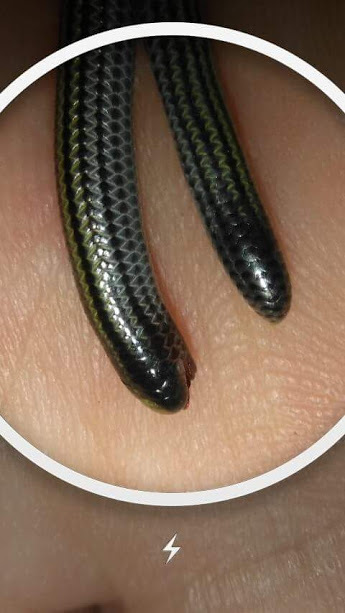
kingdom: Animalia
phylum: Chordata
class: Squamata
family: Leptotyphlopidae
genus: Epictia
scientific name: Epictia munoai
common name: Rio grande do sul blind snake
